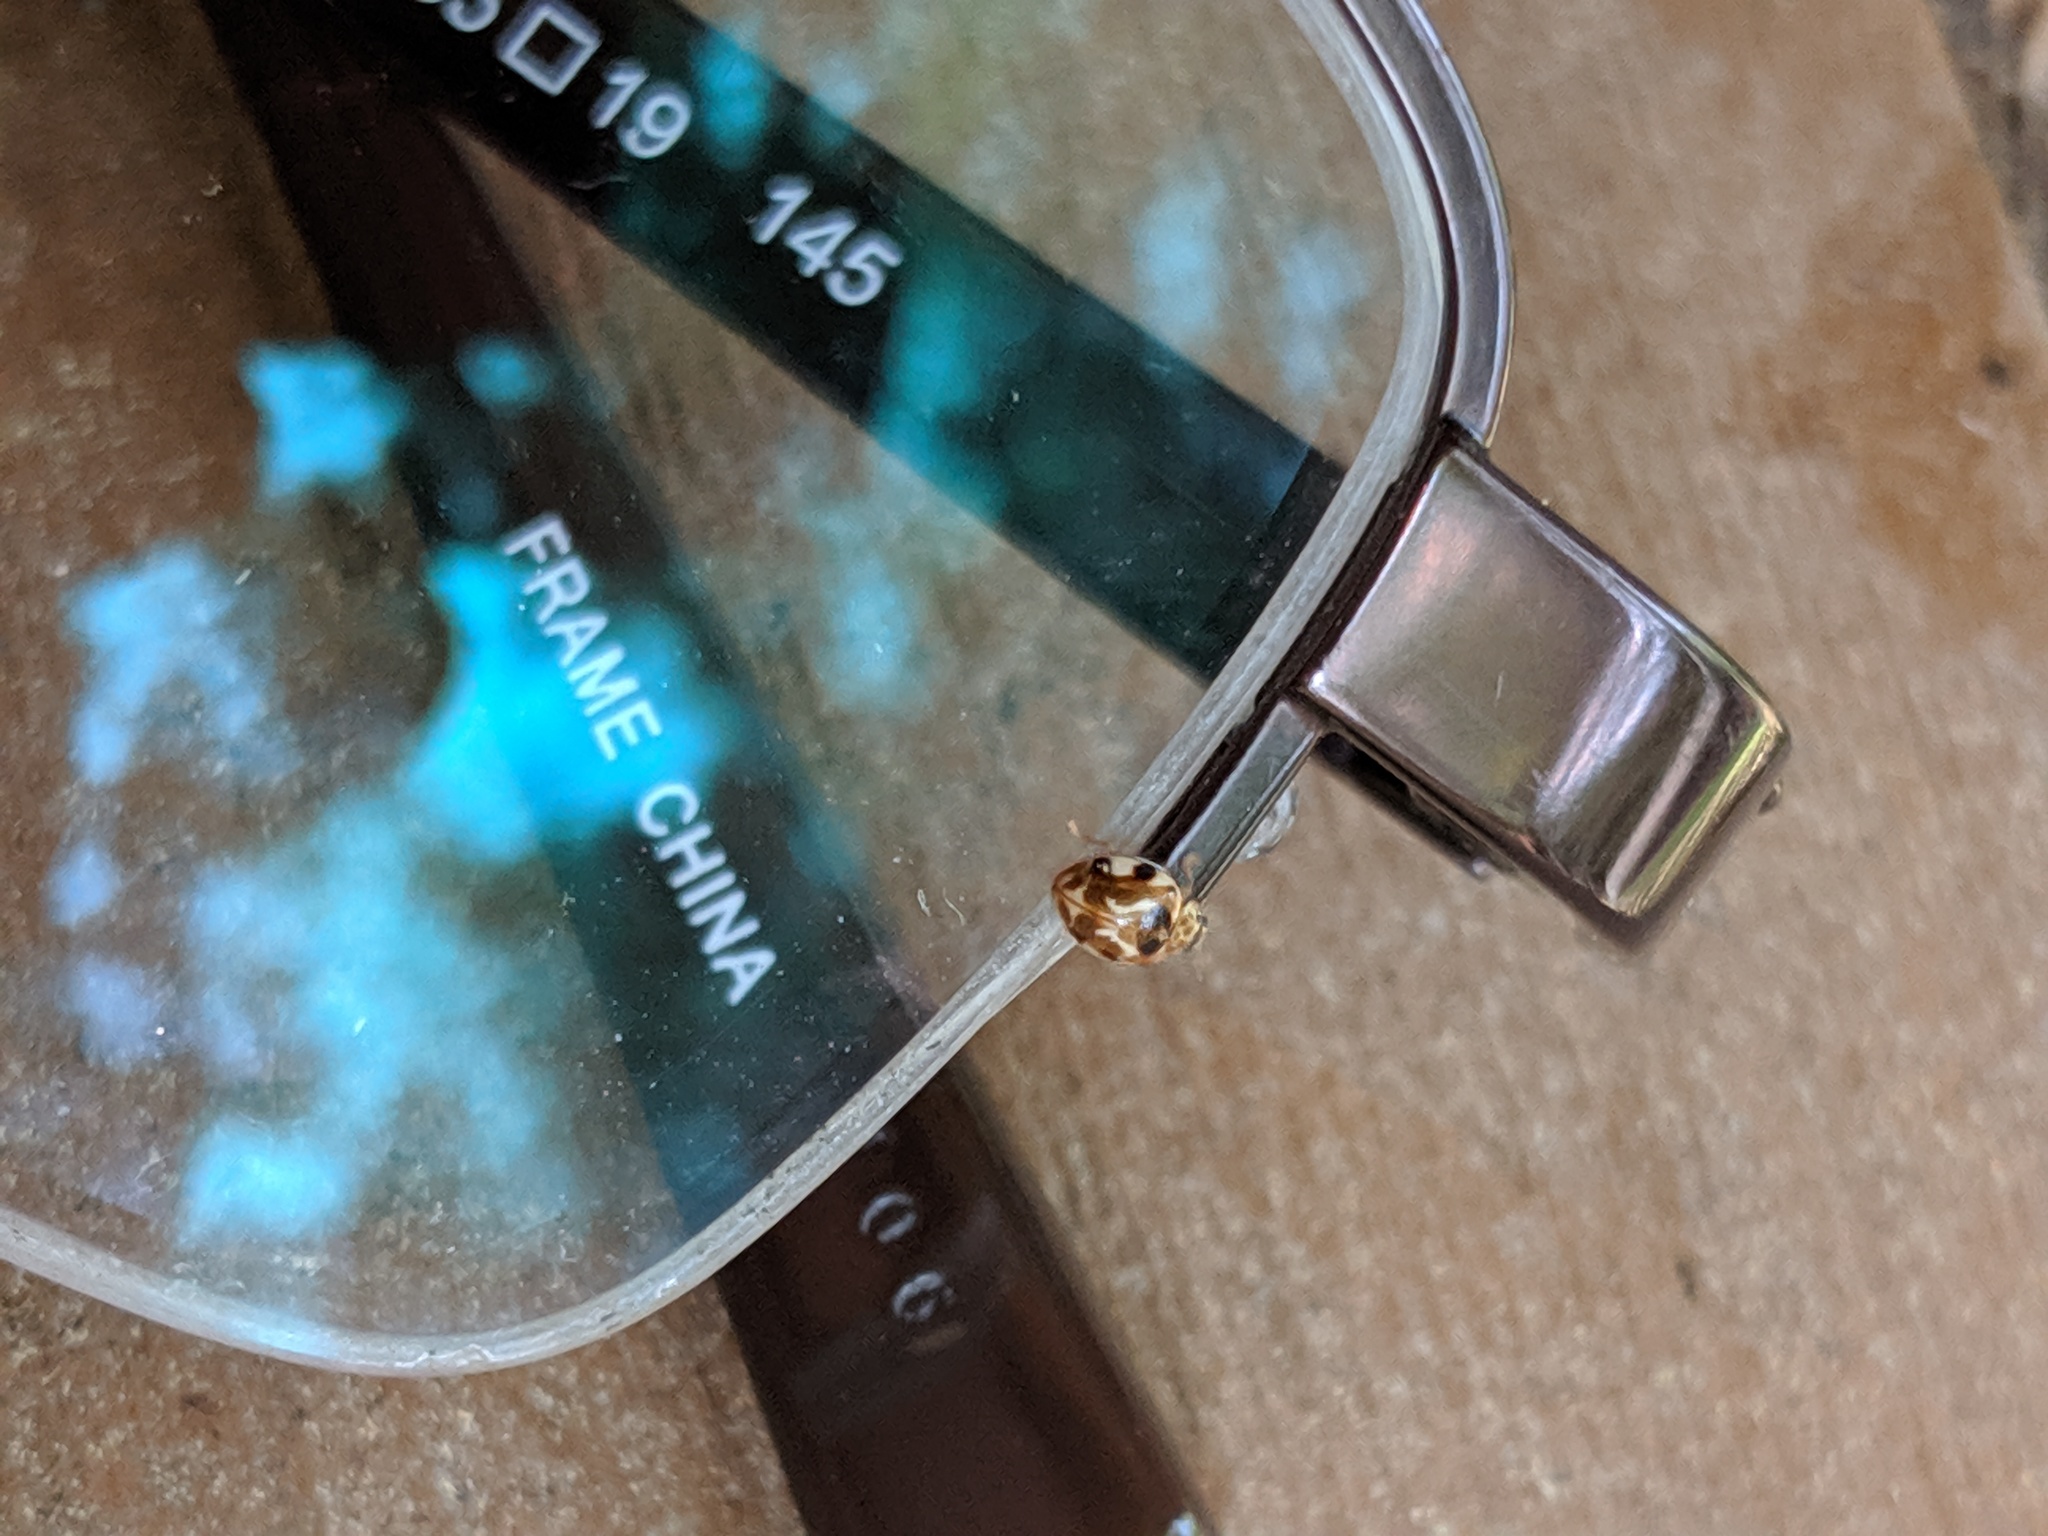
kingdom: Animalia
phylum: Arthropoda
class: Insecta
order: Coleoptera
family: Coccinellidae
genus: Psyllobora
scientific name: Psyllobora vigintimaculata
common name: Ladybird beetle
